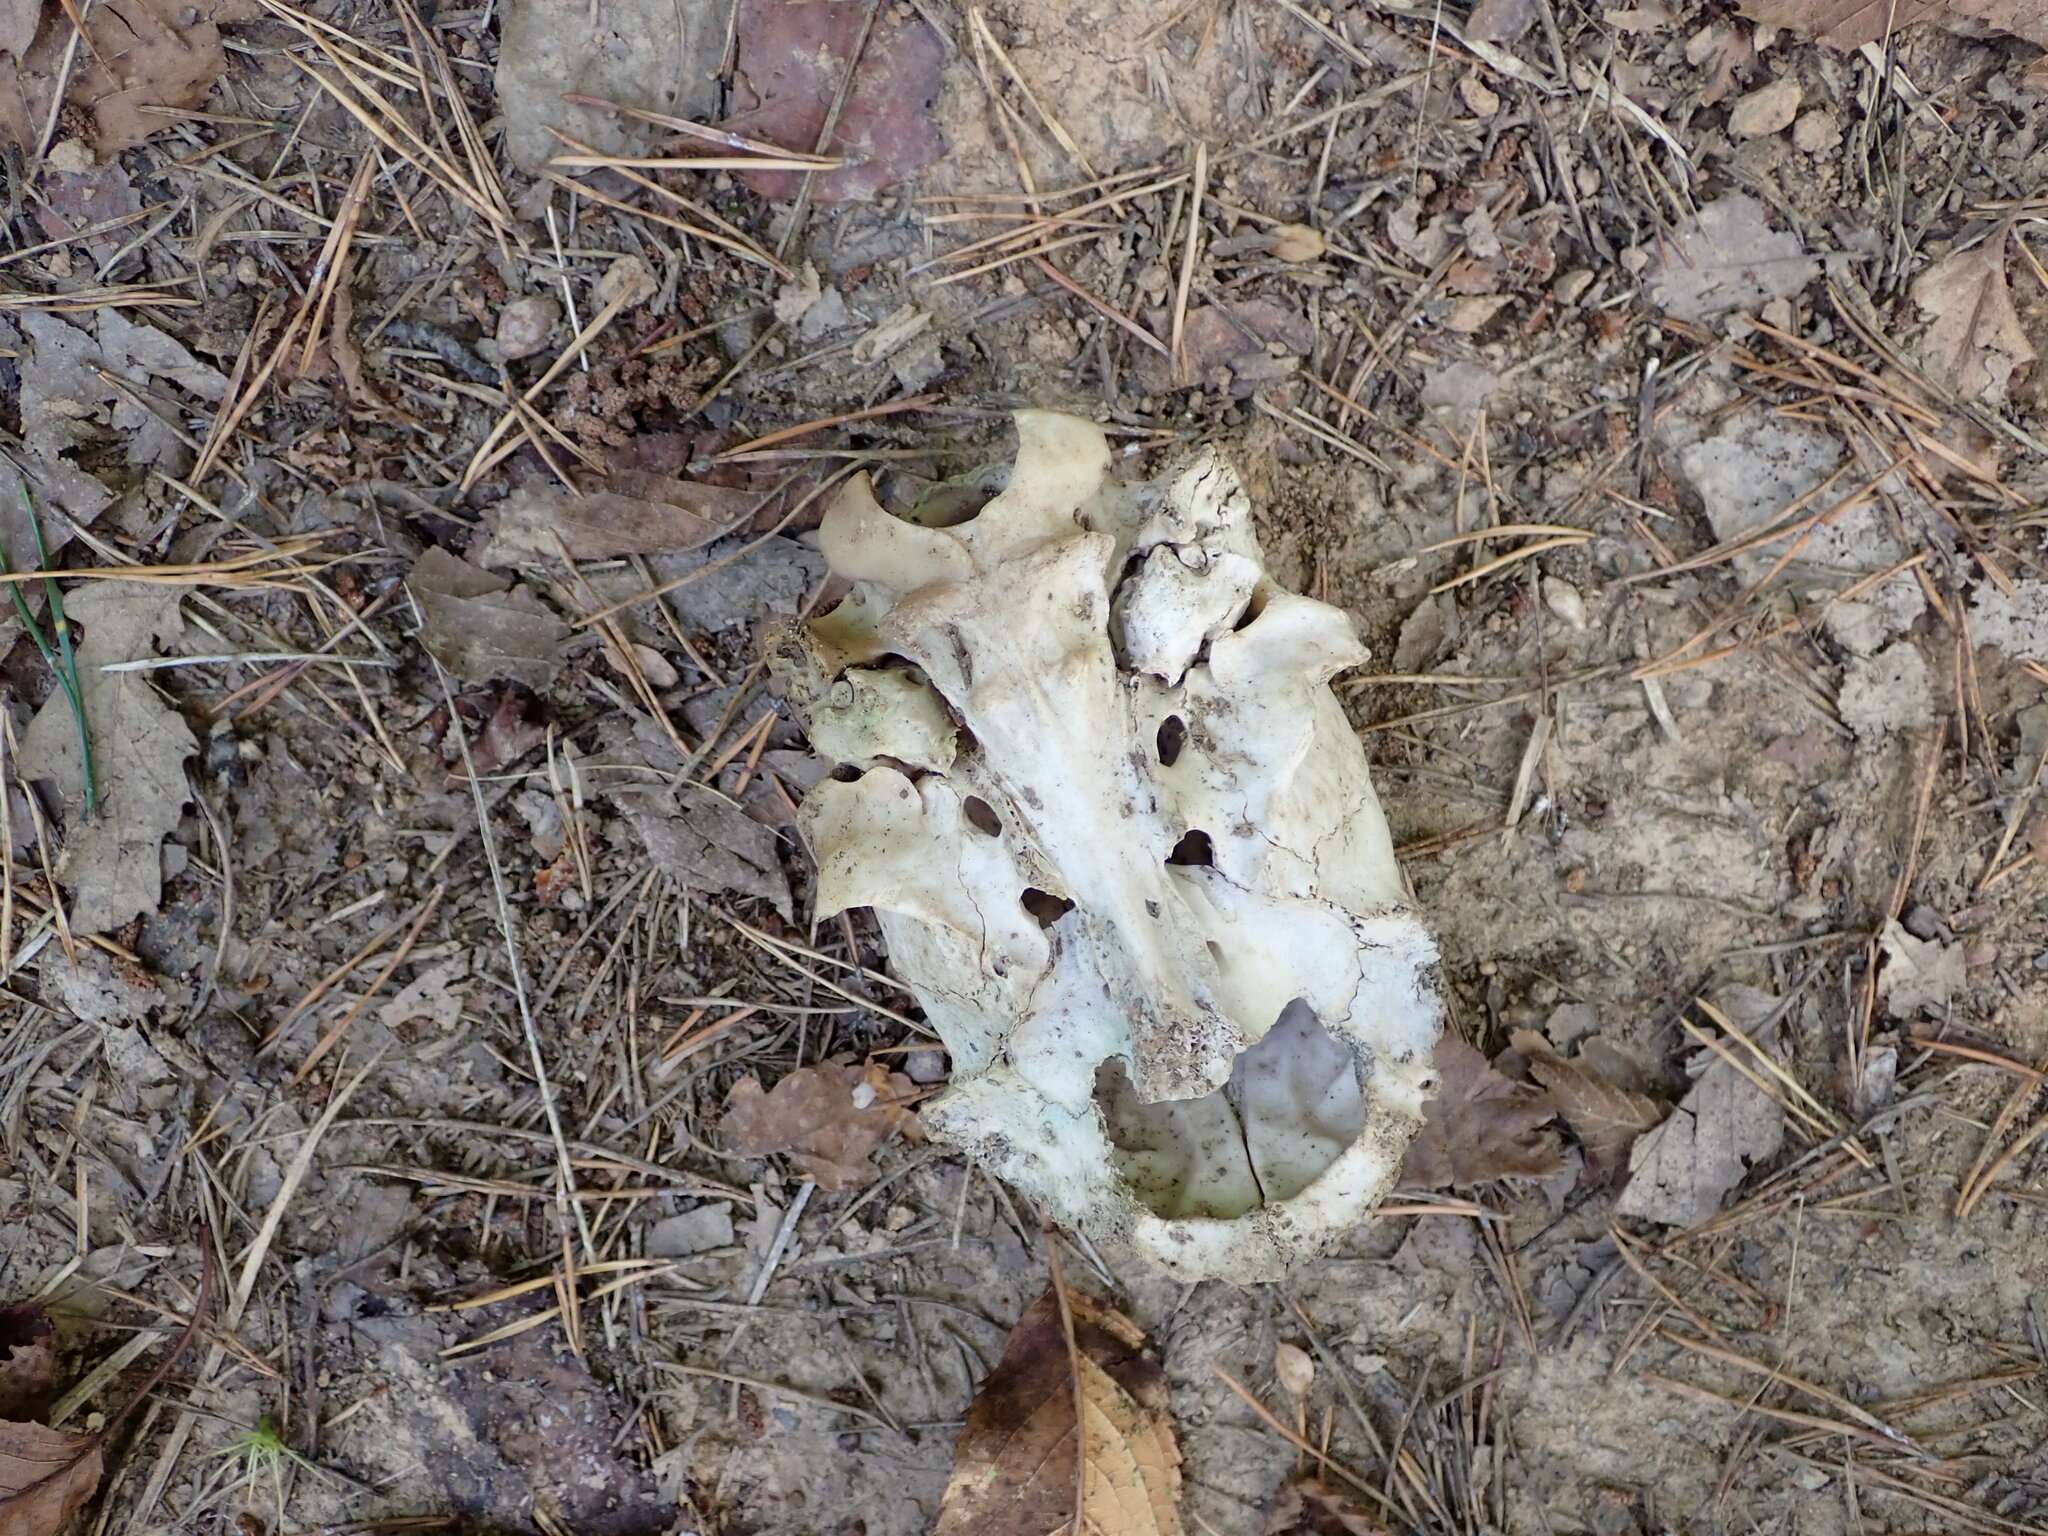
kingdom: Animalia
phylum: Chordata
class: Mammalia
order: Artiodactyla
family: Cervidae
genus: Capreolus
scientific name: Capreolus capreolus
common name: Western roe deer
